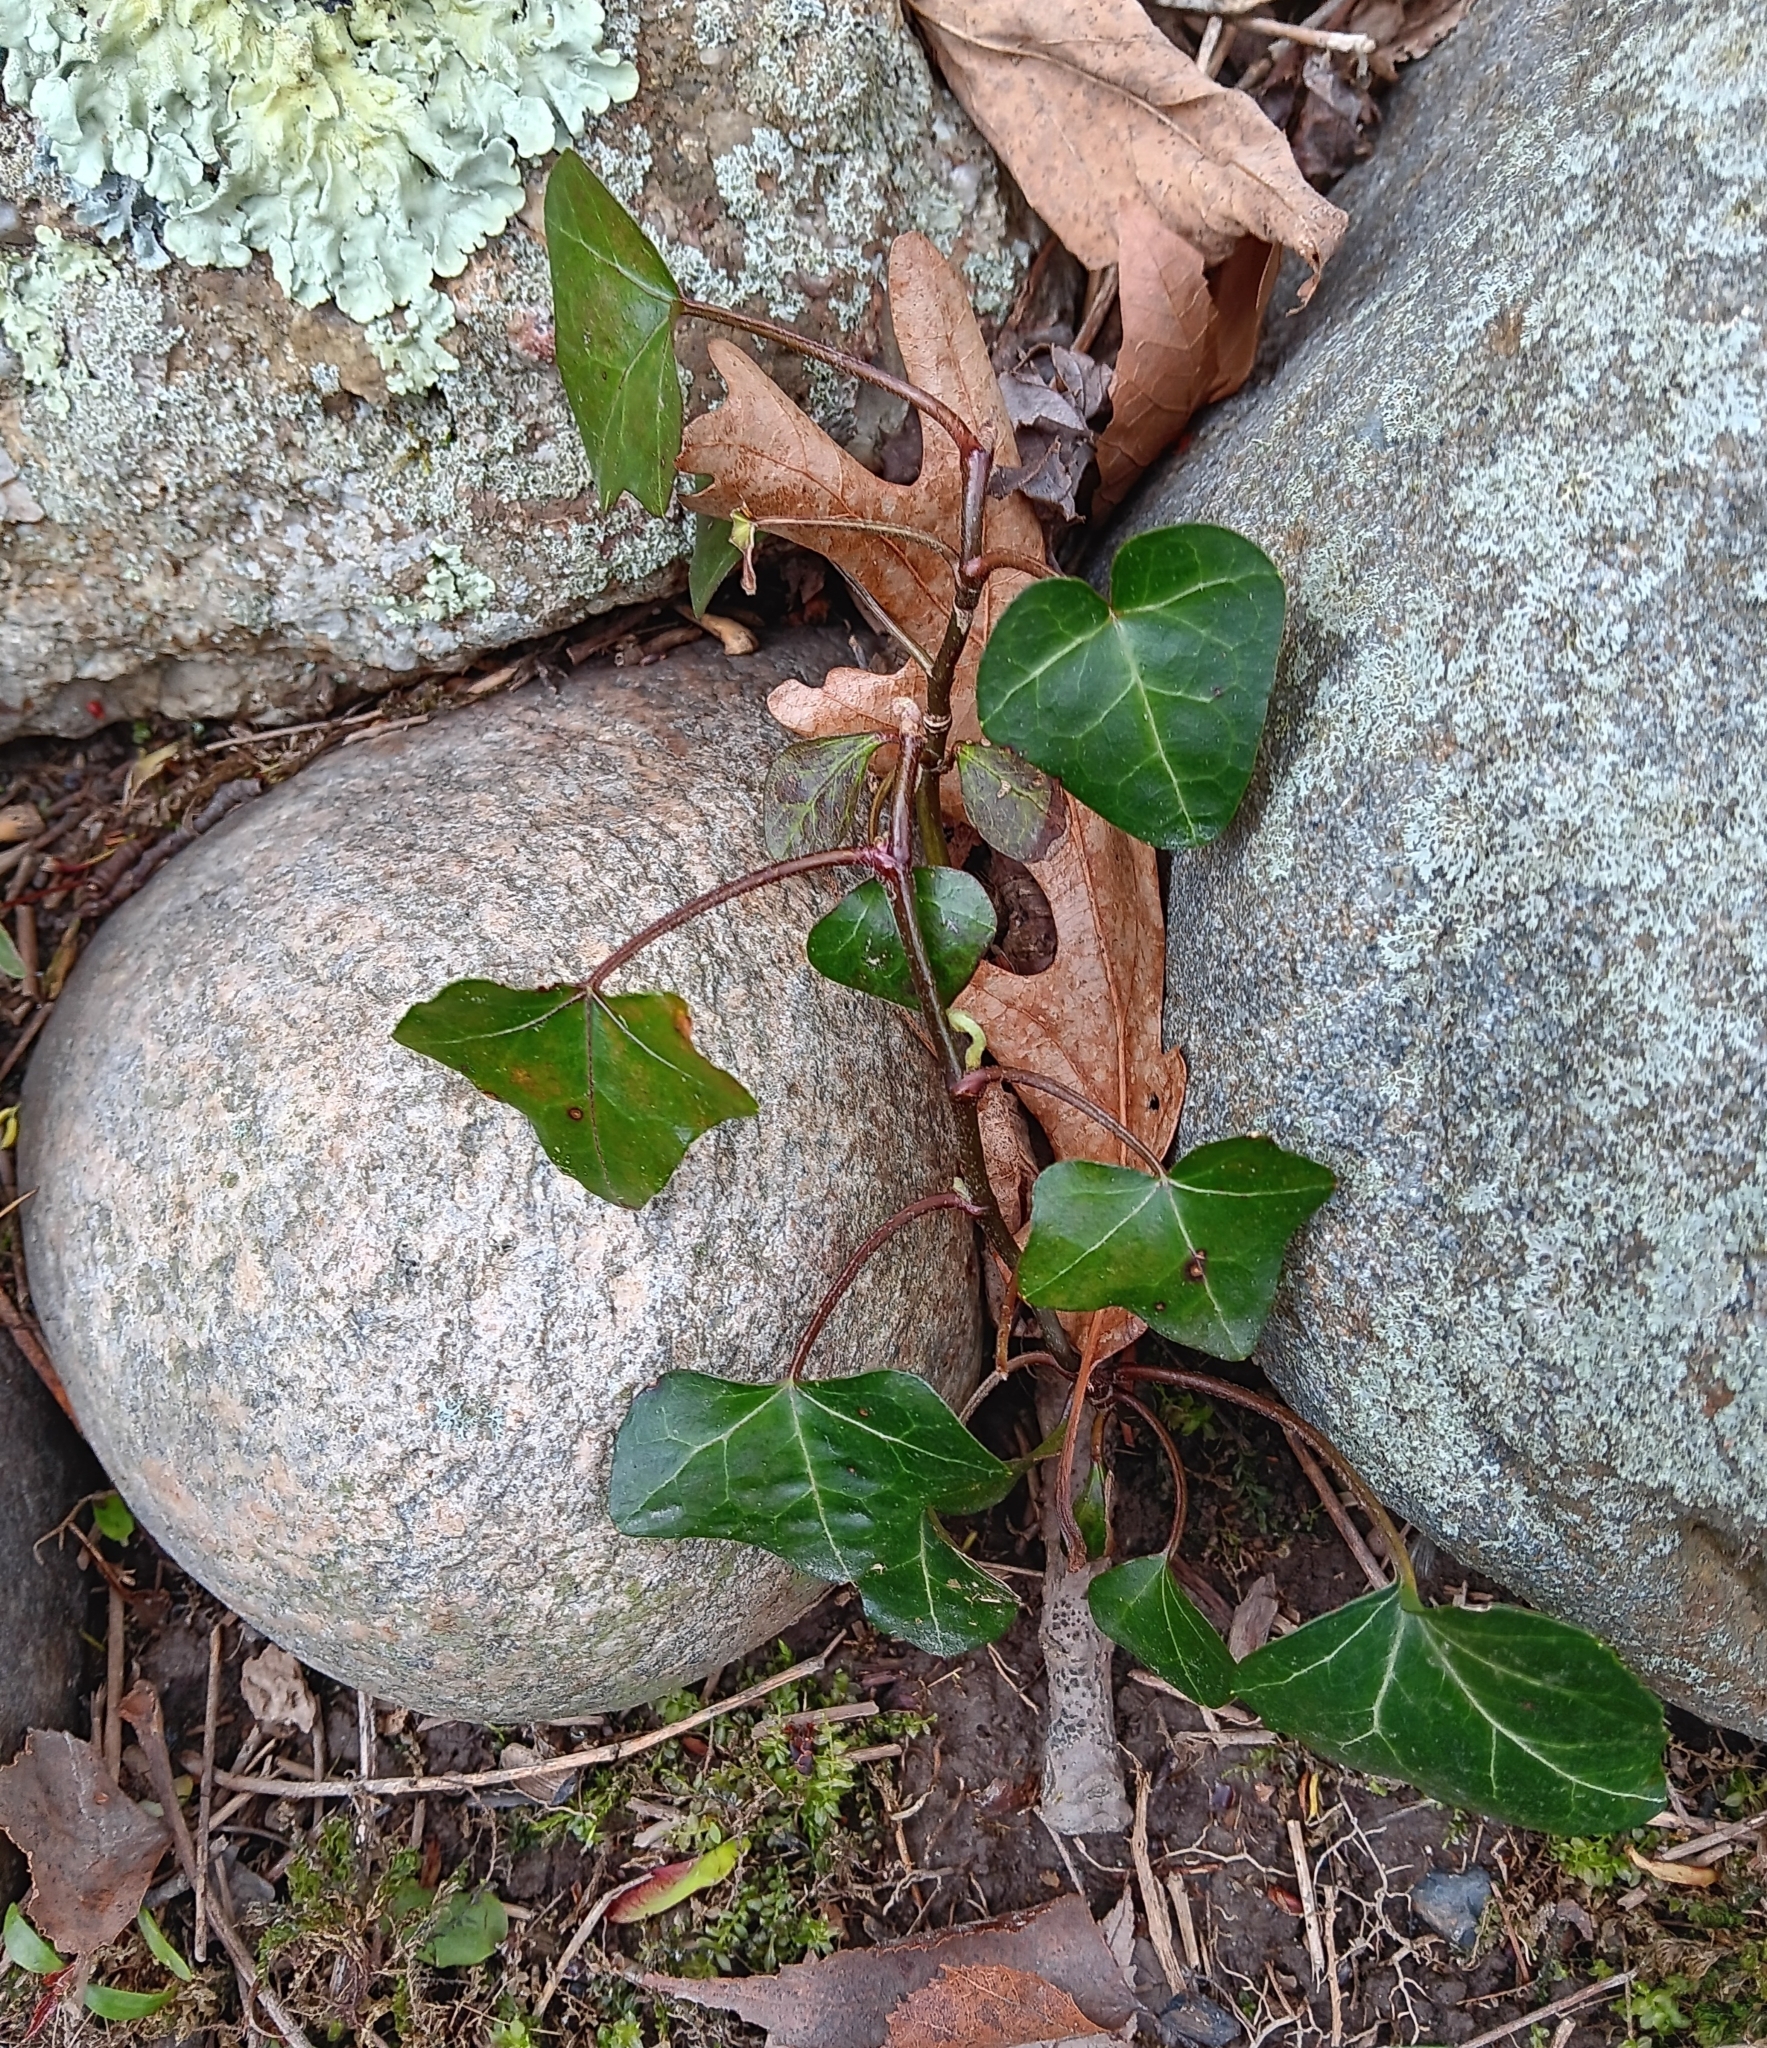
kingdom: Plantae
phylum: Tracheophyta
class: Magnoliopsida
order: Apiales
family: Araliaceae
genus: Hedera
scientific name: Hedera helix
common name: Ivy
